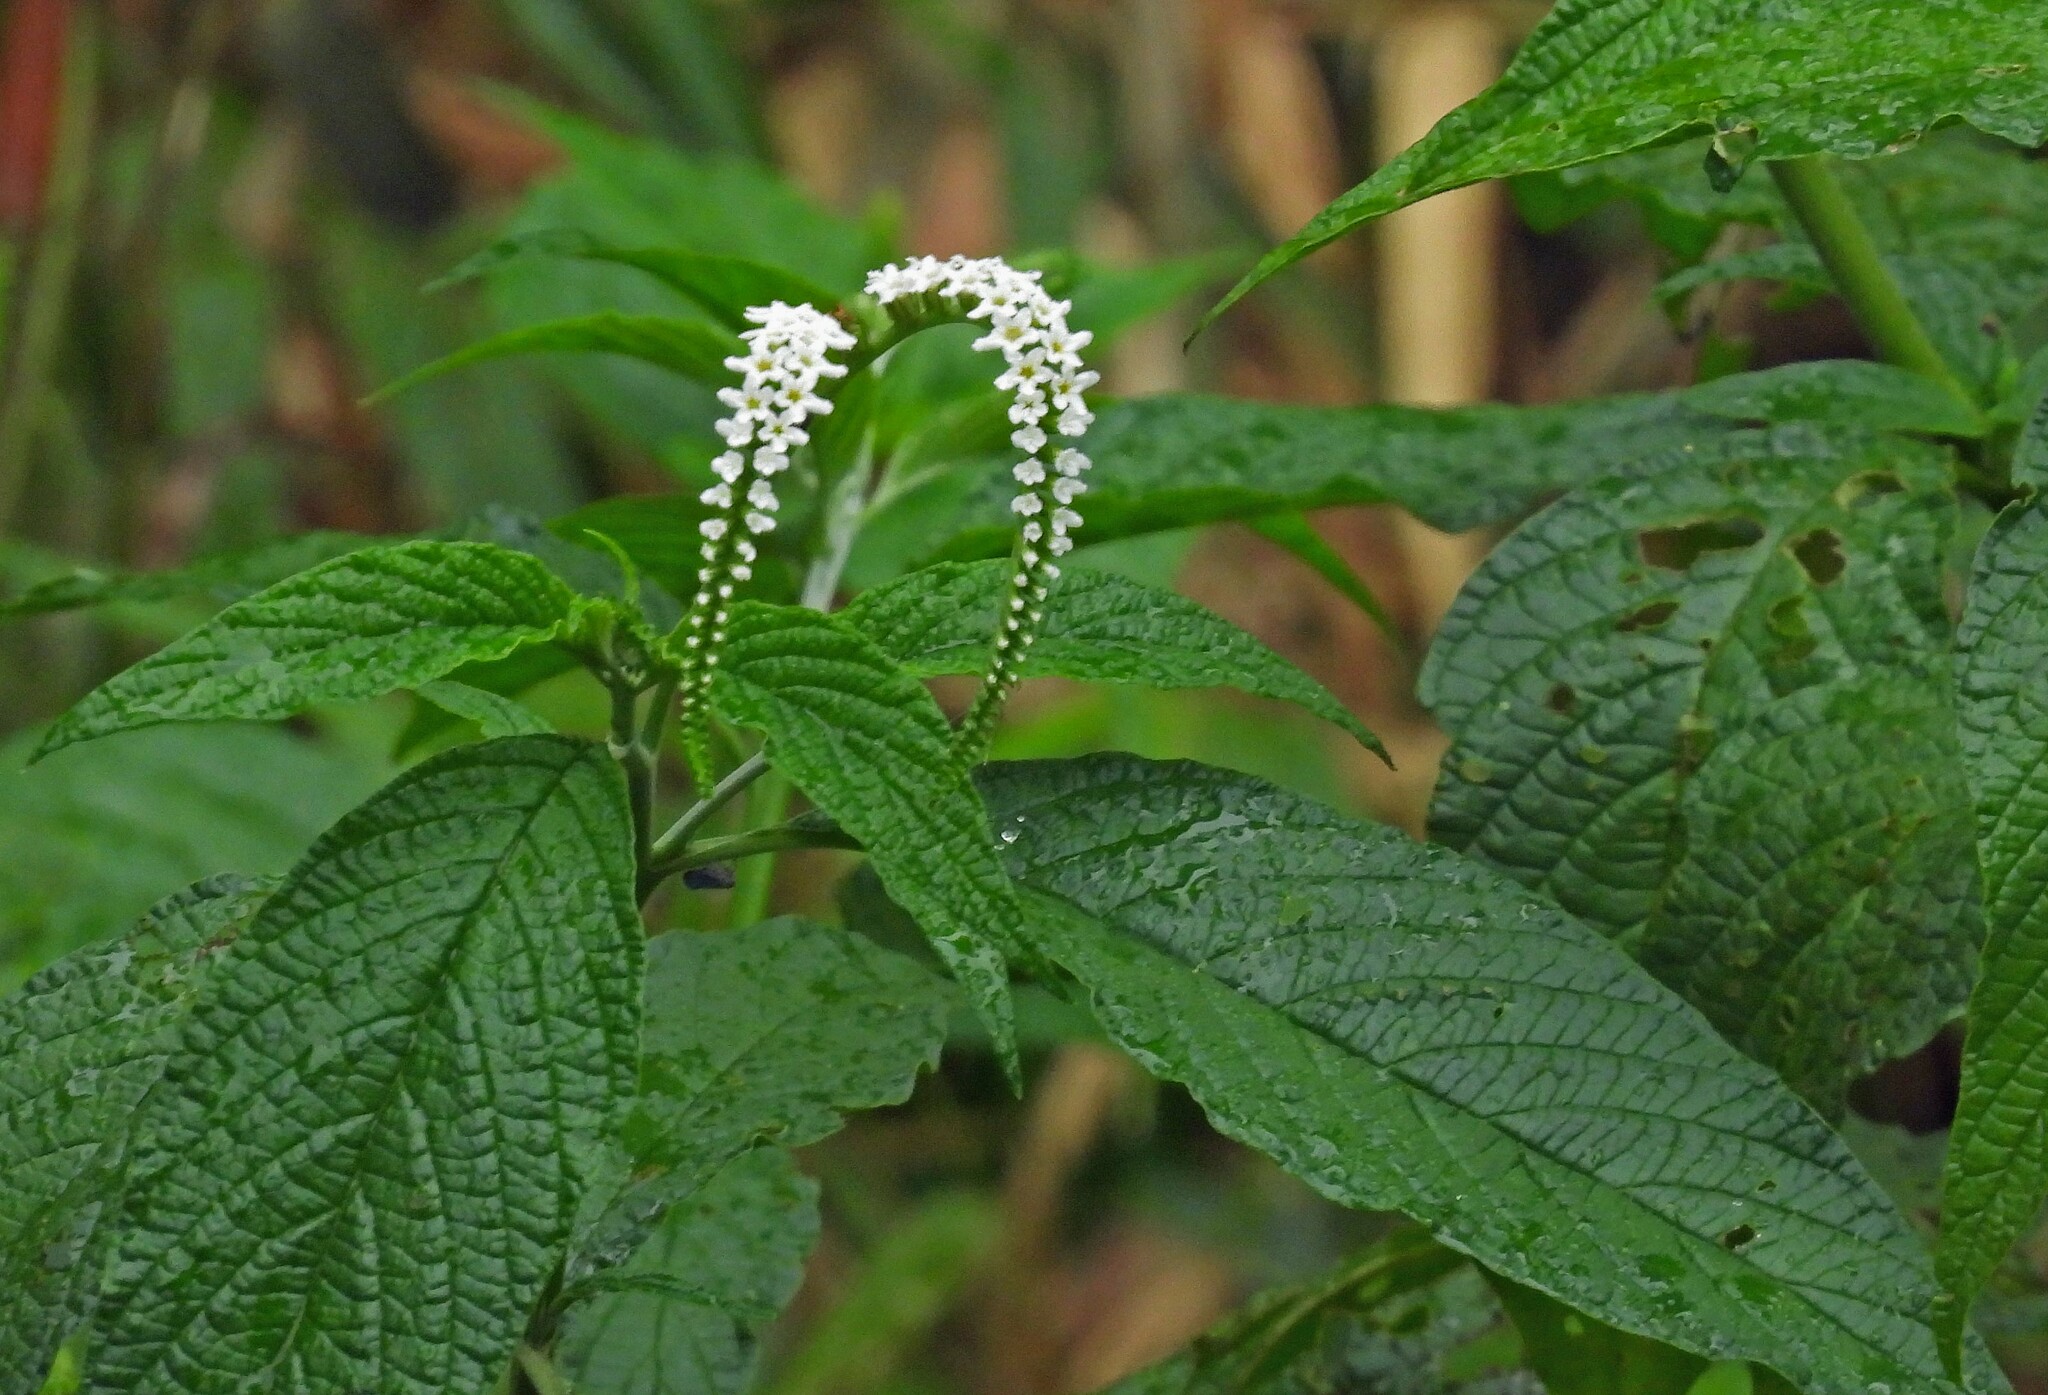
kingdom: Plantae
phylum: Tracheophyta
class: Magnoliopsida
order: Boraginales
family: Heliotropiaceae
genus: Heliotropium
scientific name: Heliotropium tiaridioides
